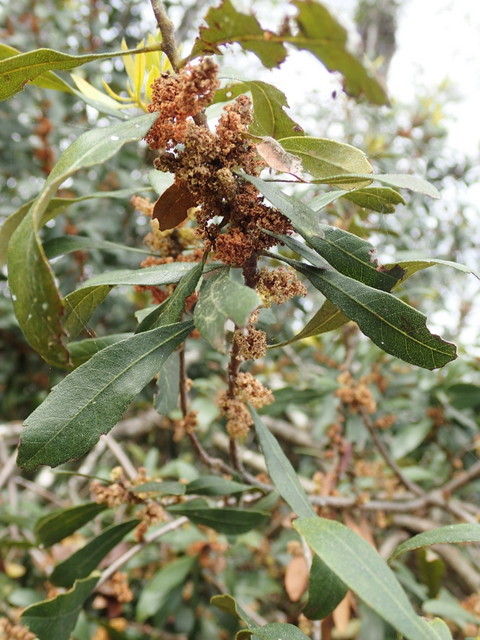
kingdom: Plantae
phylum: Tracheophyta
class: Magnoliopsida
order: Fagales
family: Myricaceae
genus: Morella
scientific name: Morella cerifera
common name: Wax myrtle
